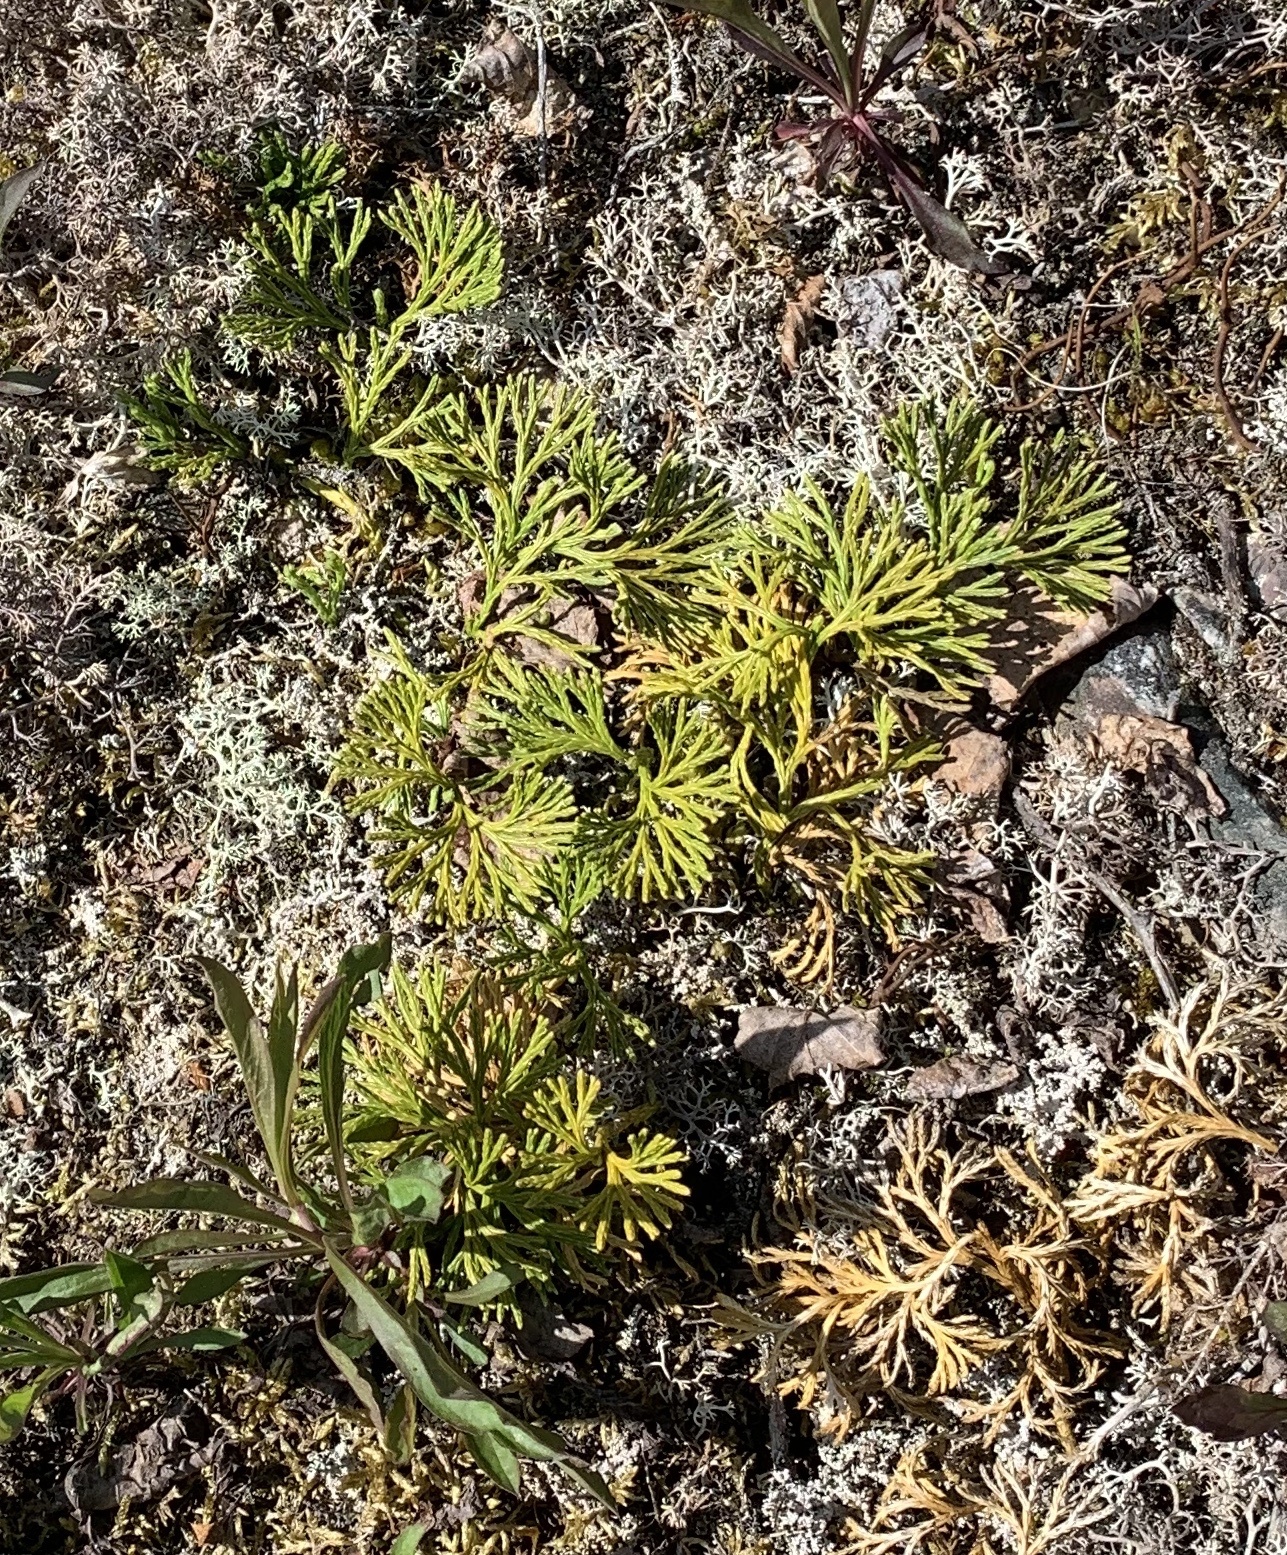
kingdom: Plantae
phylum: Tracheophyta
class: Lycopodiopsida
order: Lycopodiales
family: Lycopodiaceae
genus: Diphasiastrum
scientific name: Diphasiastrum digitatum
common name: Southern running-pine
